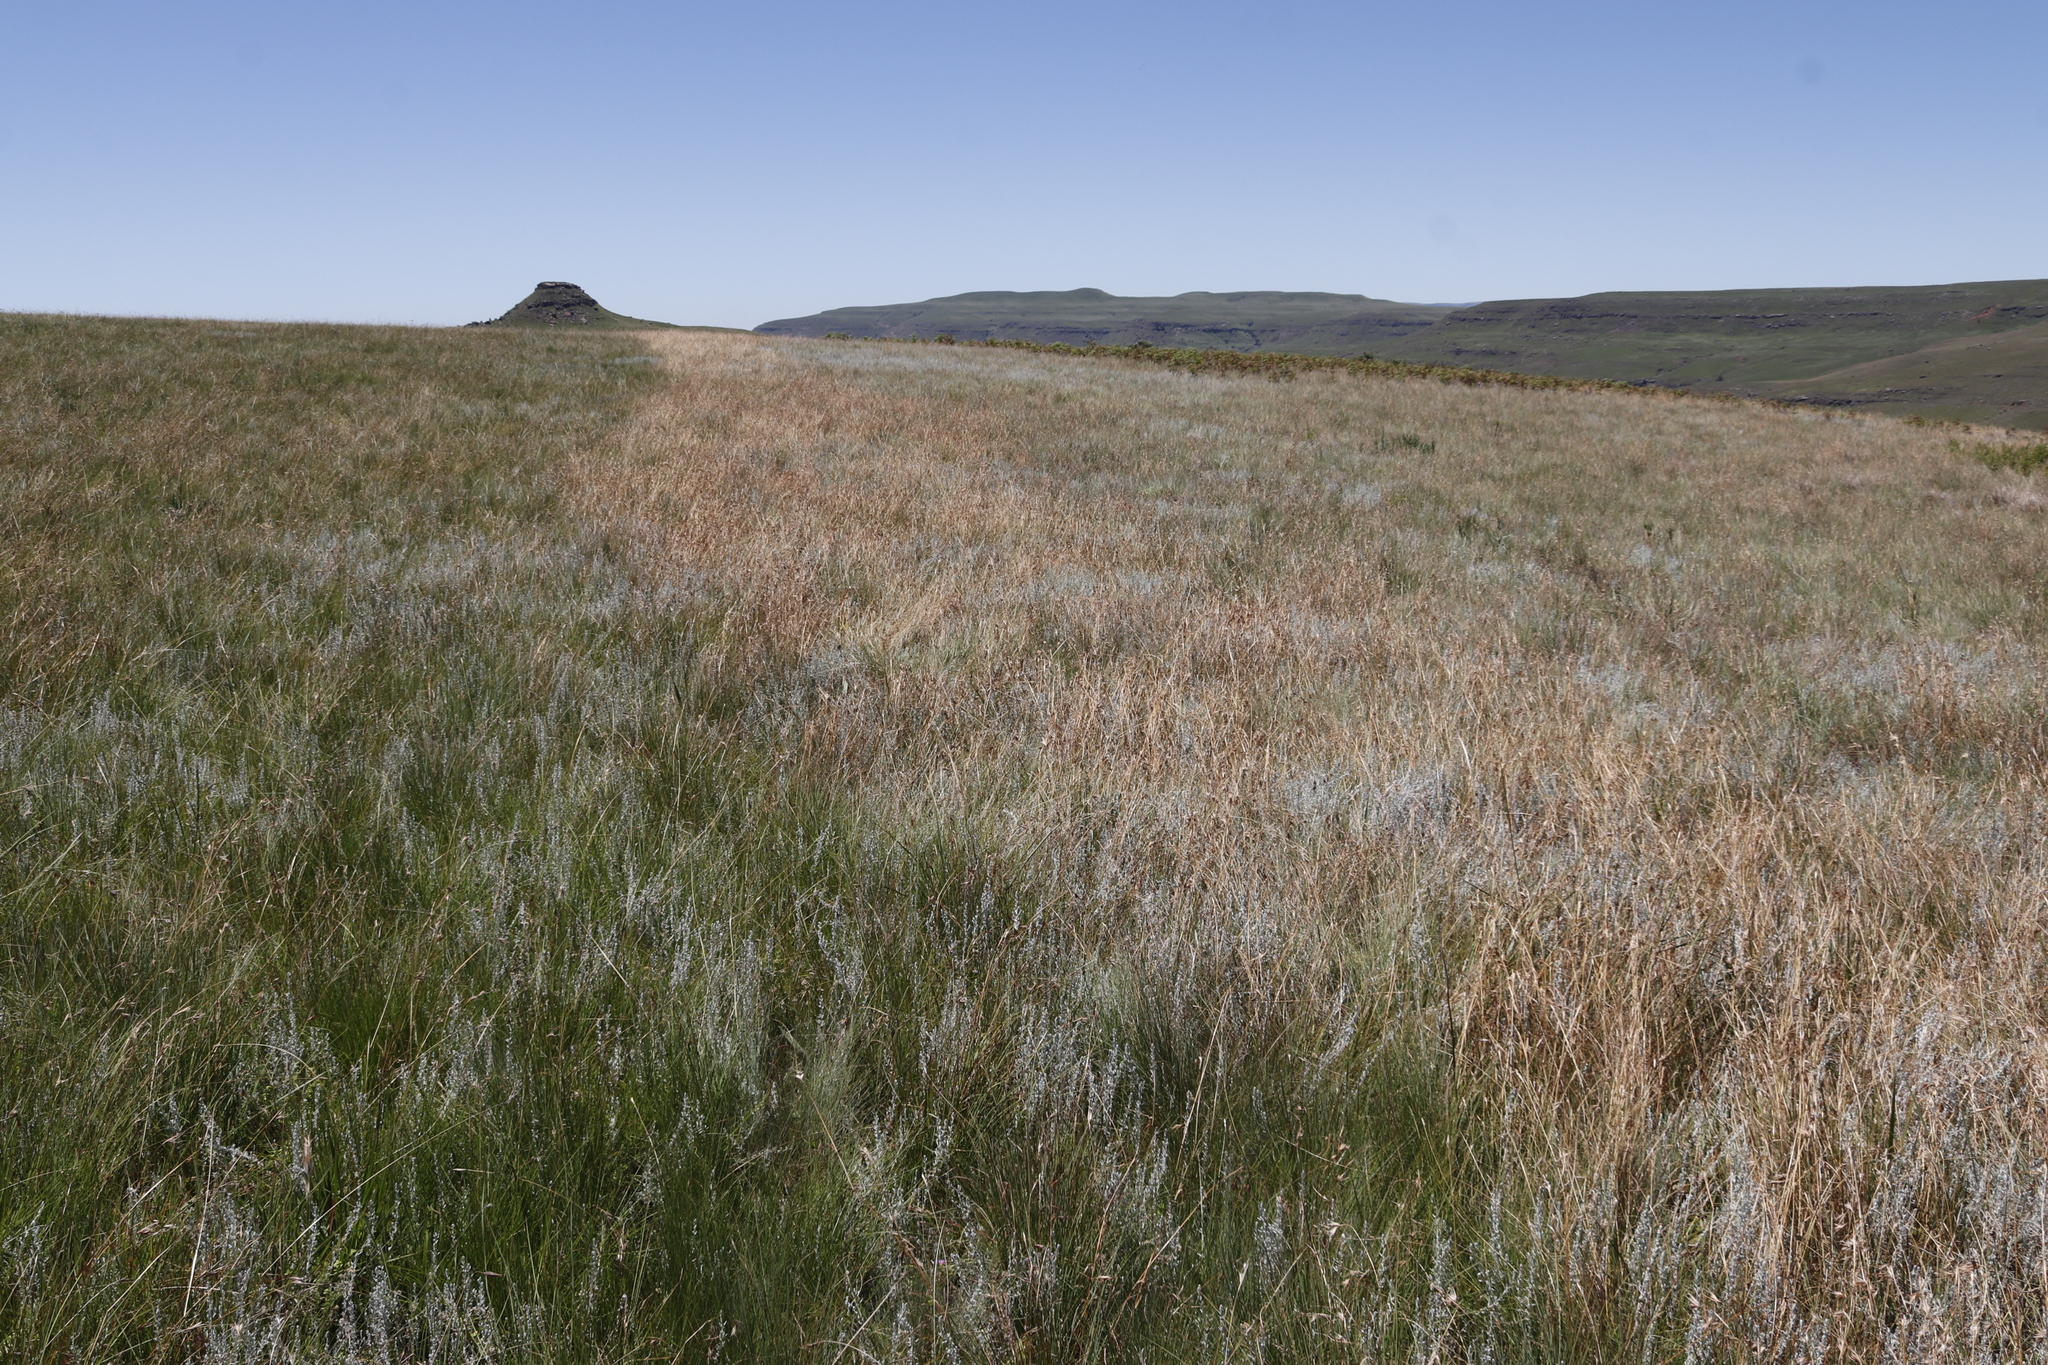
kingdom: Plantae
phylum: Tracheophyta
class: Liliopsida
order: Poales
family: Poaceae
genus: Themeda
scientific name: Themeda triandra
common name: Kangaroo grass
